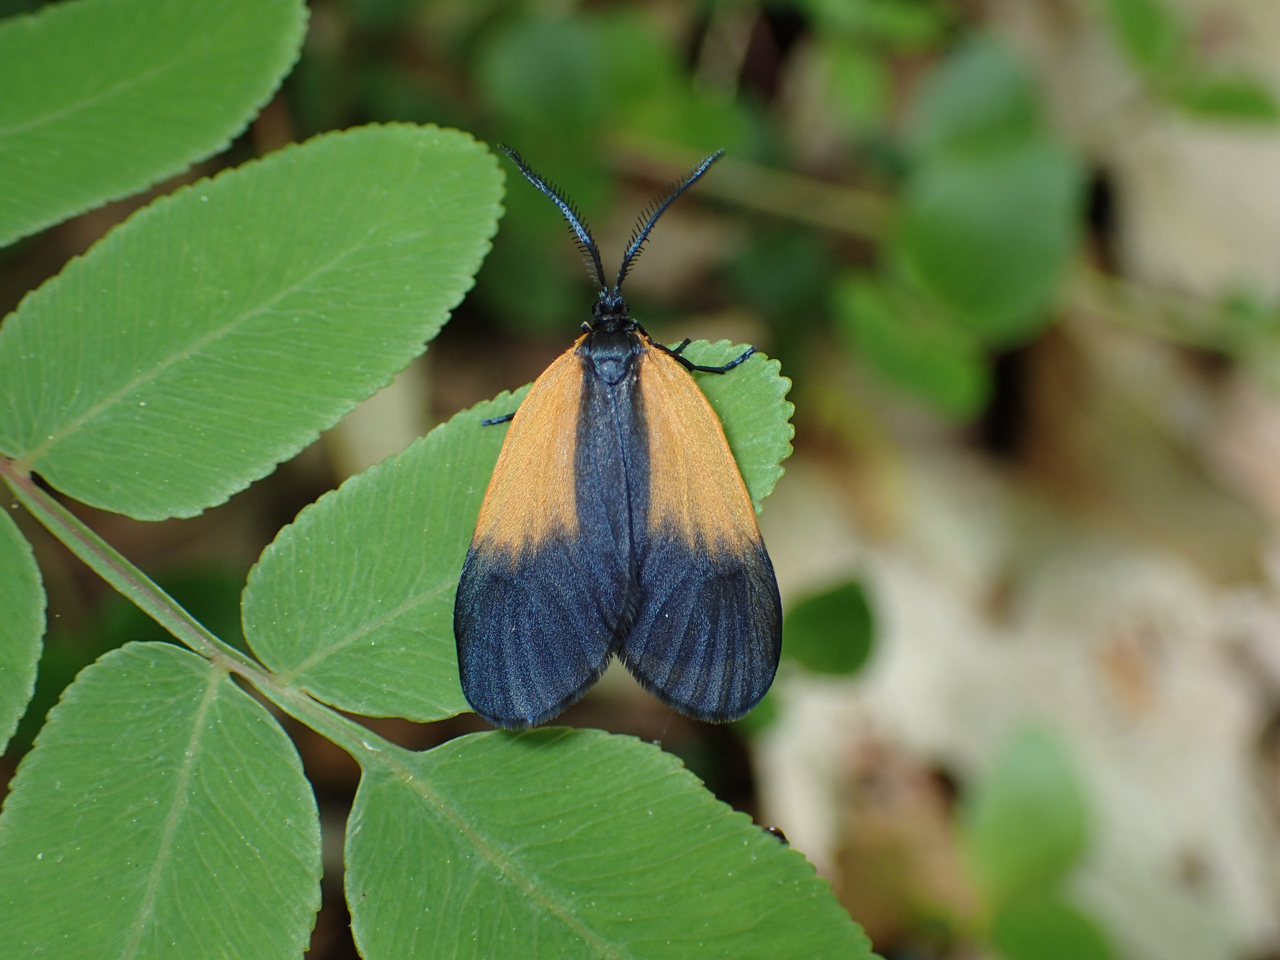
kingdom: Animalia
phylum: Arthropoda
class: Insecta
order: Lepidoptera
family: Zygaenidae
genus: Malthaca
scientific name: Malthaca dimidiata
